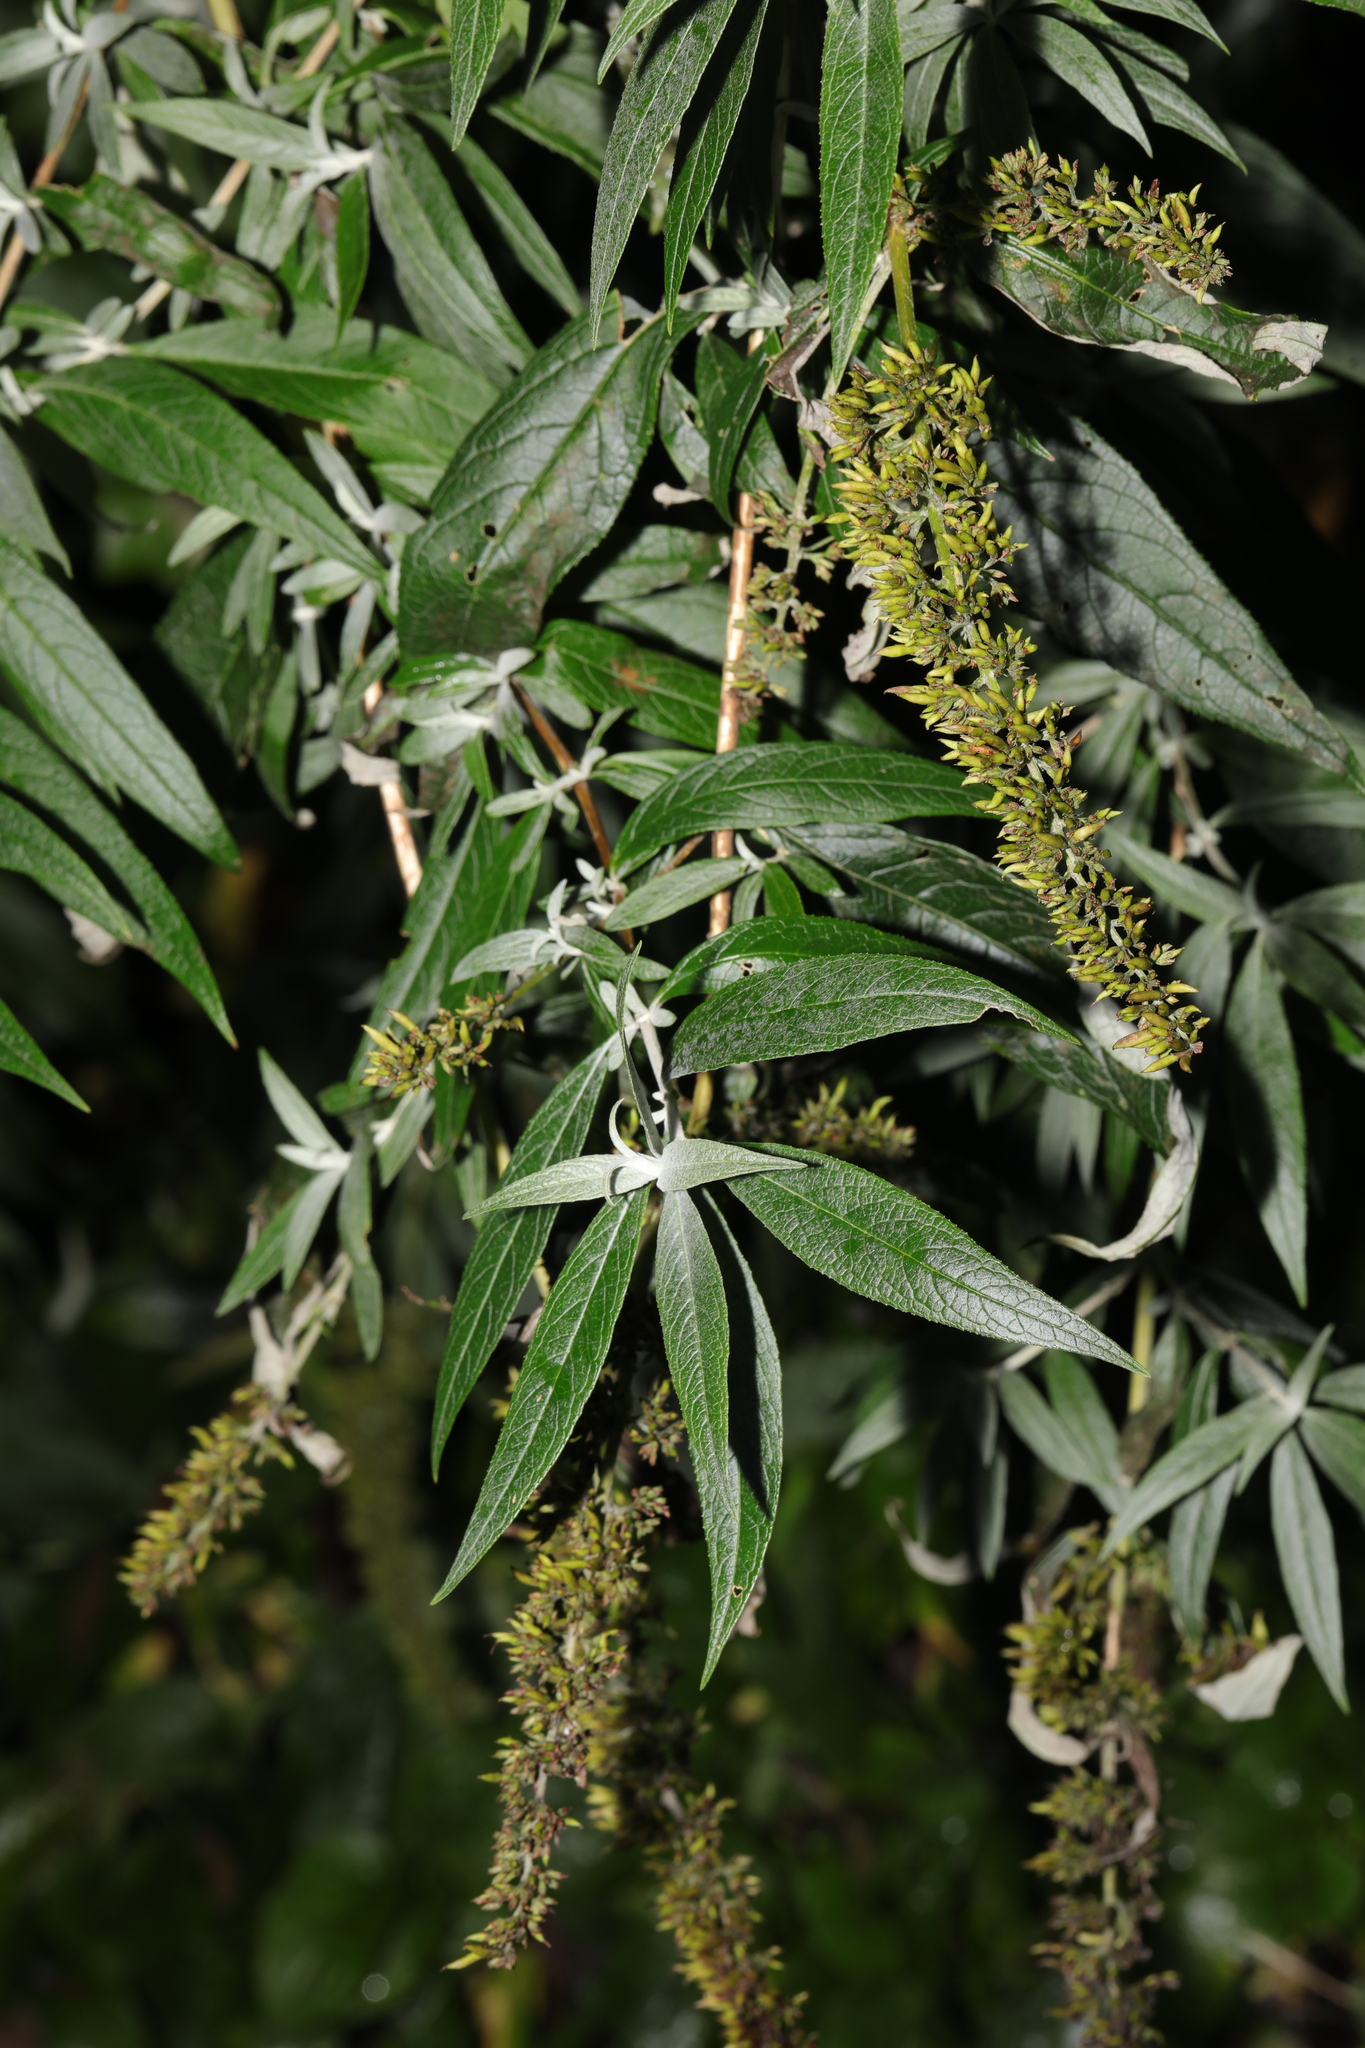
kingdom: Plantae
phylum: Tracheophyta
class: Magnoliopsida
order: Lamiales
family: Scrophulariaceae
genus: Buddleja
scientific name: Buddleja davidii
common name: Butterfly-bush
